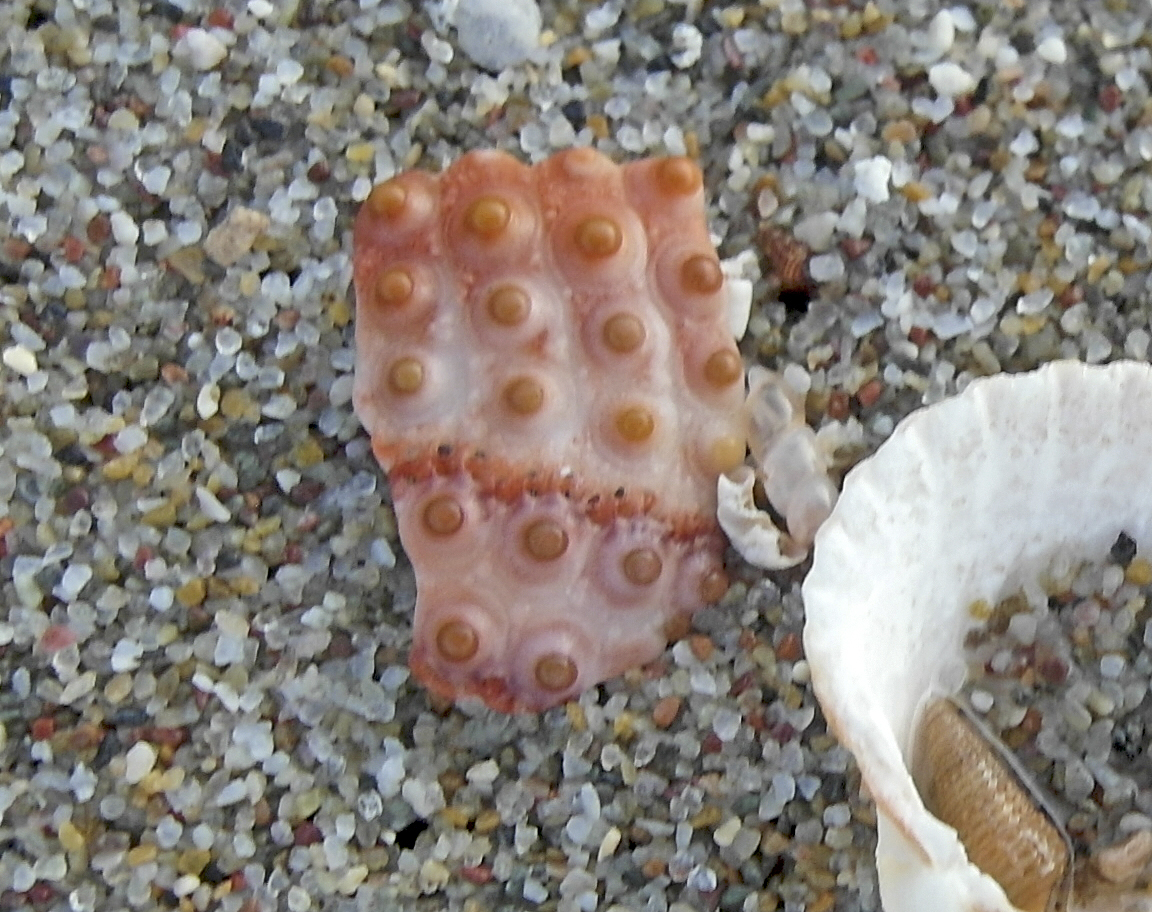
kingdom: Animalia
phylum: Echinodermata
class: Echinoidea
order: Arbacioida
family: Arbaciidae
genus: Arbacia
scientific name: Arbacia lixula
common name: Black sea urchin
